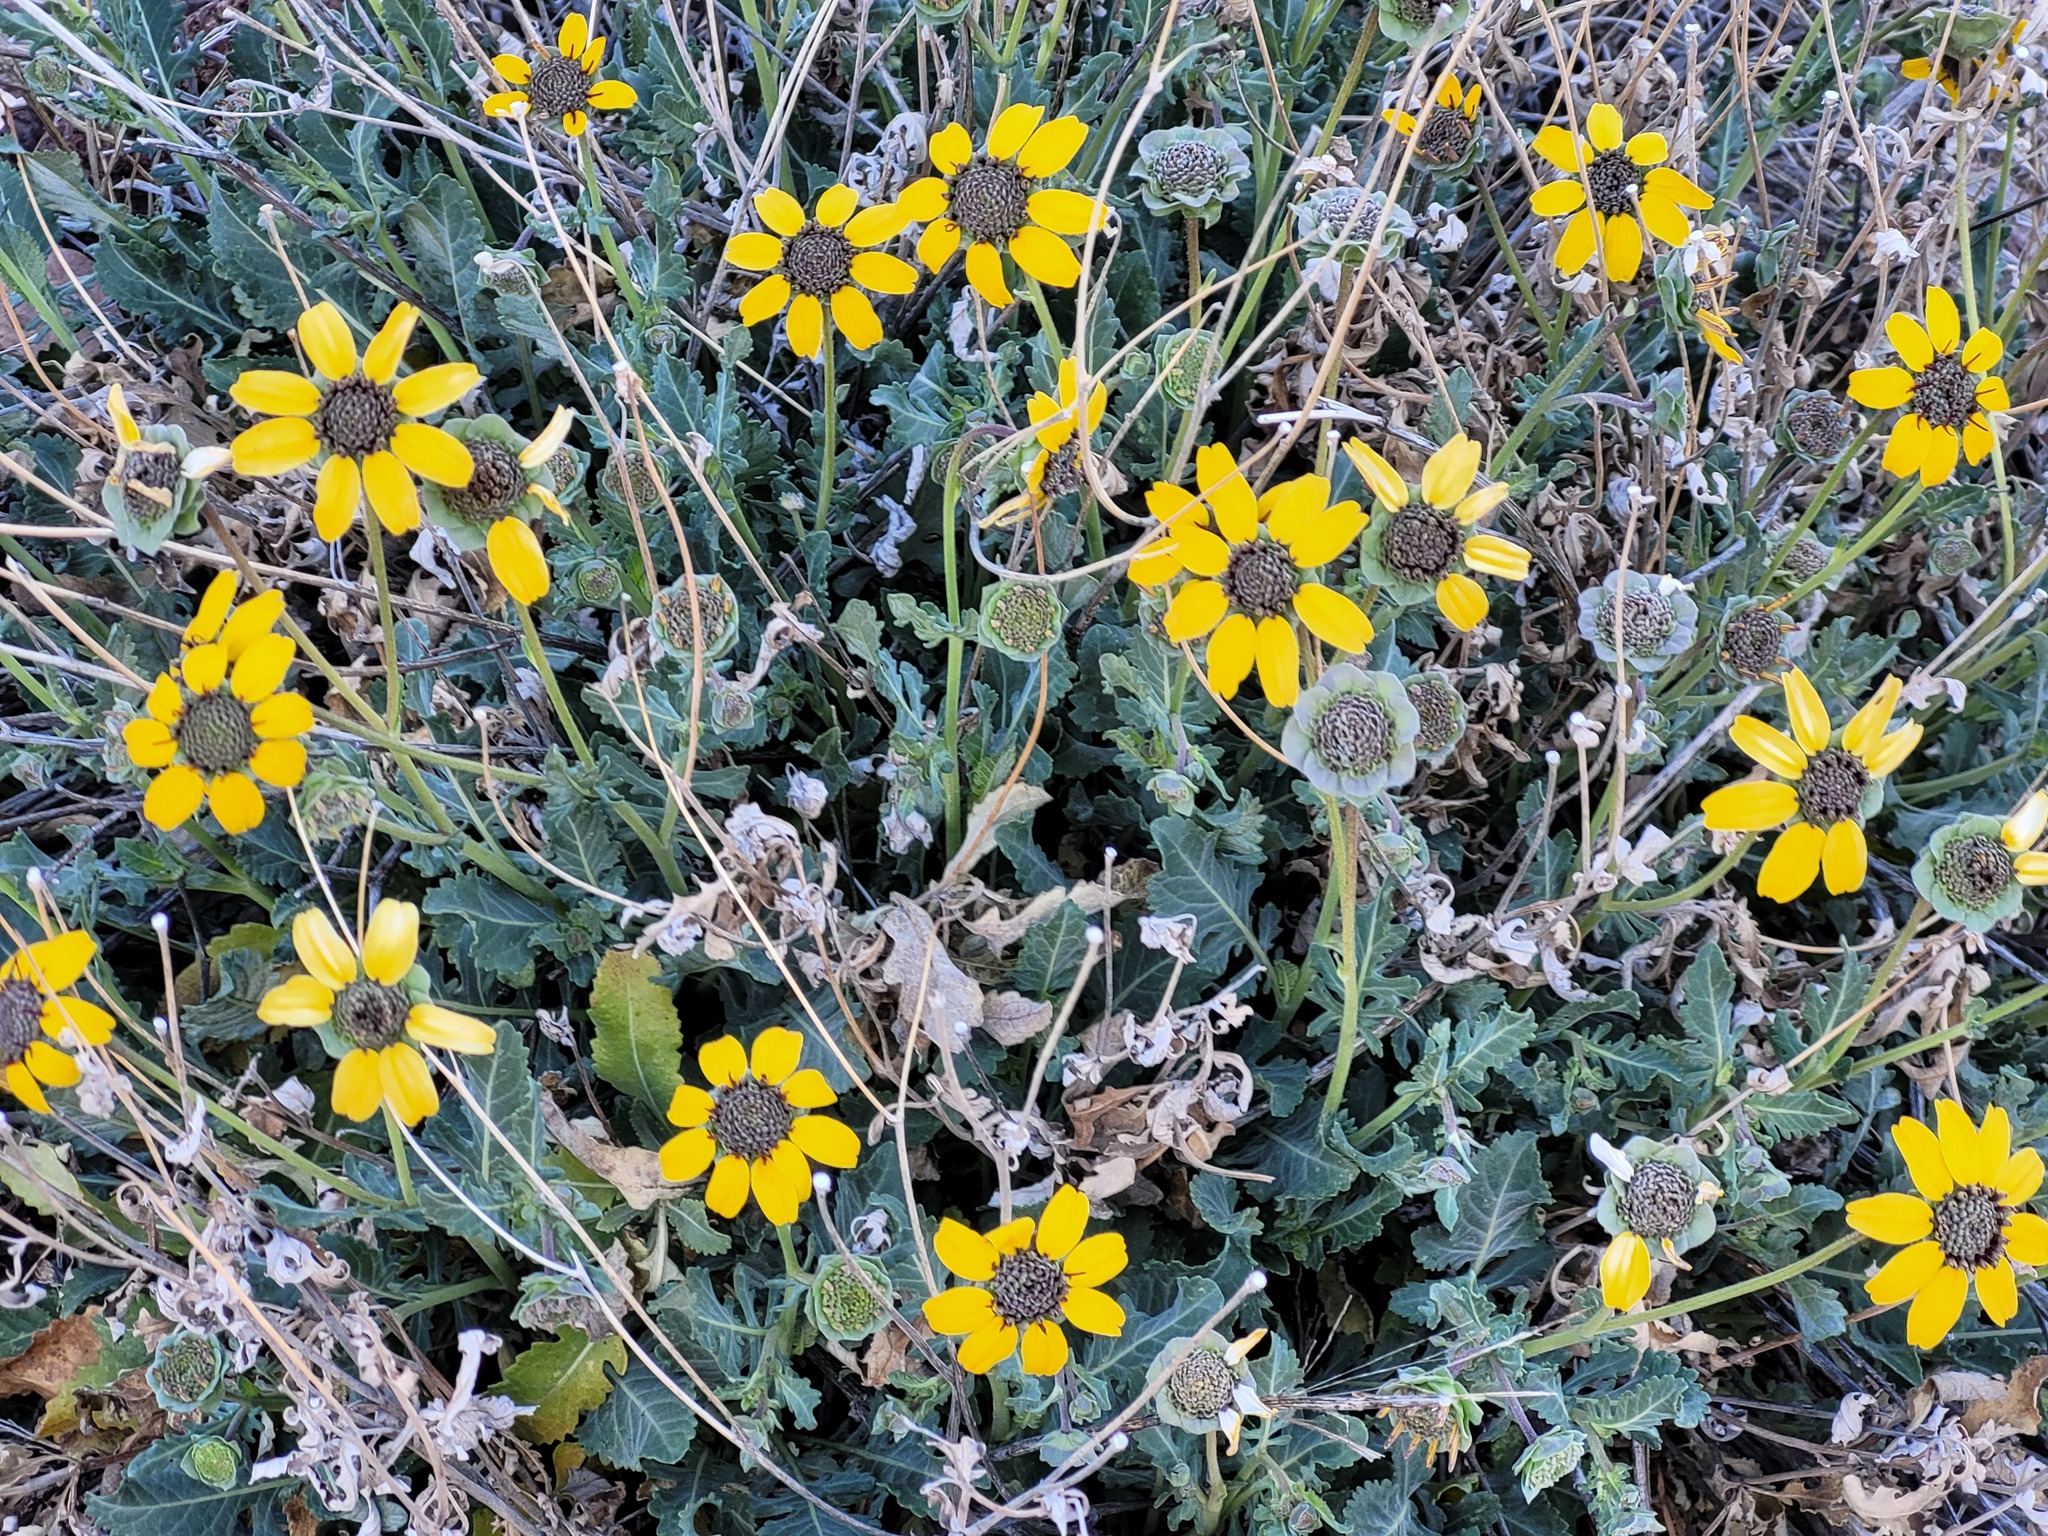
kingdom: Plantae
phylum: Tracheophyta
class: Magnoliopsida
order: Asterales
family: Asteraceae
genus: Berlandiera
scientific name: Berlandiera lyrata
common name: Chocolate-flower
